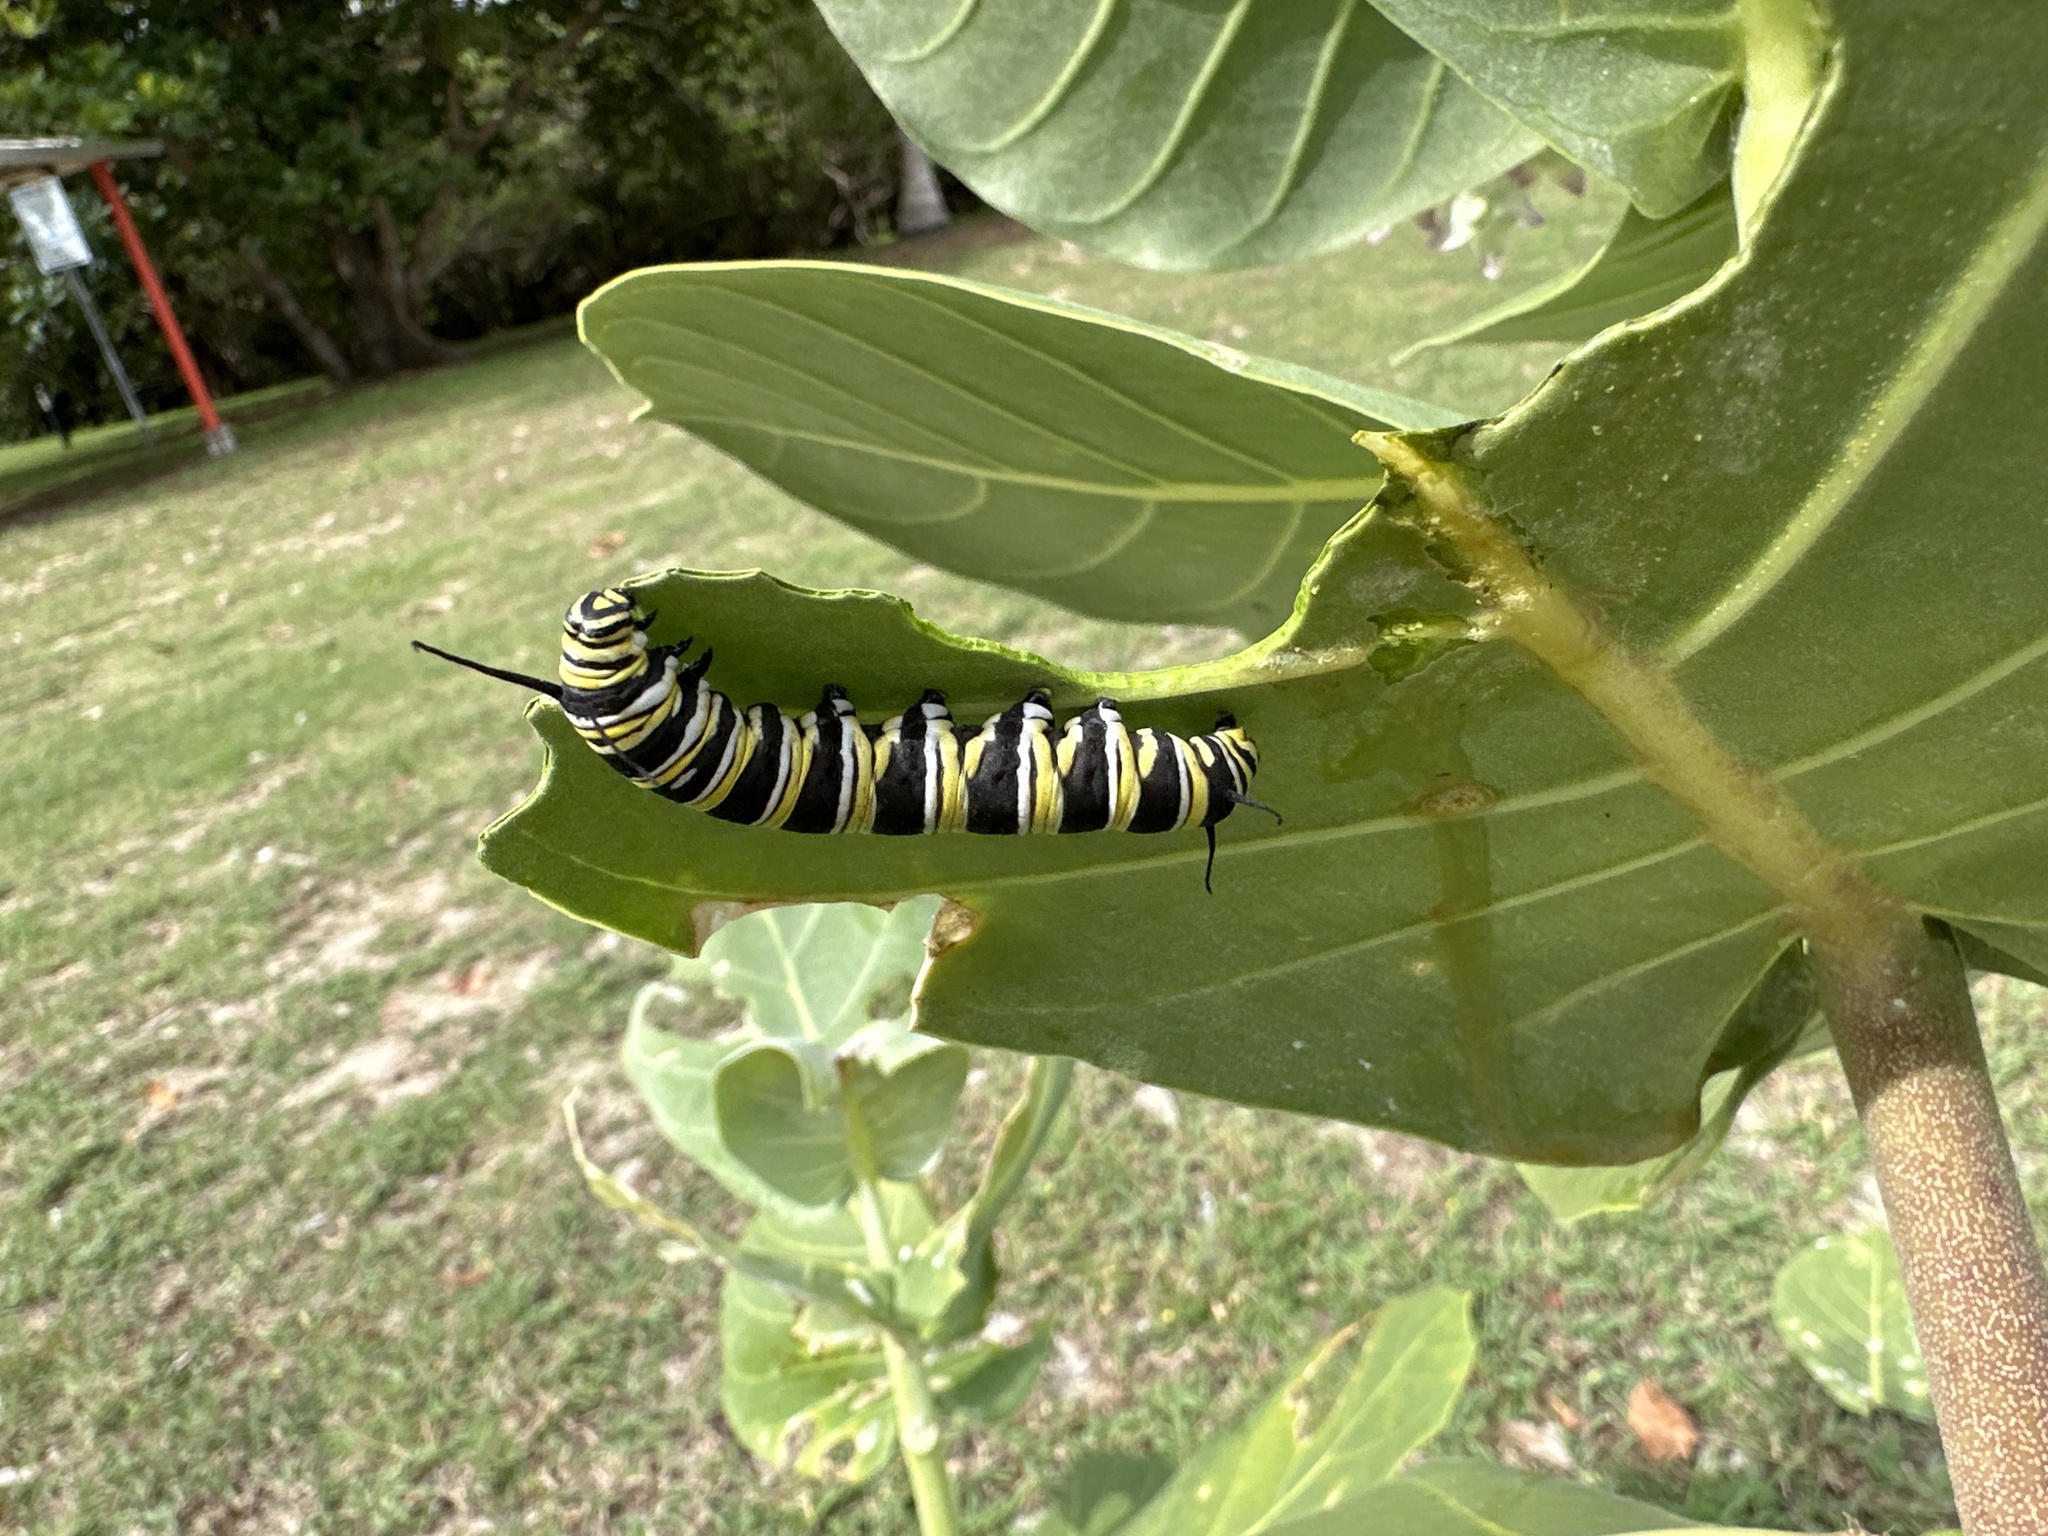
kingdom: Animalia
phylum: Arthropoda
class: Insecta
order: Lepidoptera
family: Nymphalidae
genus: Danaus
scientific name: Danaus plexippus
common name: Monarch
